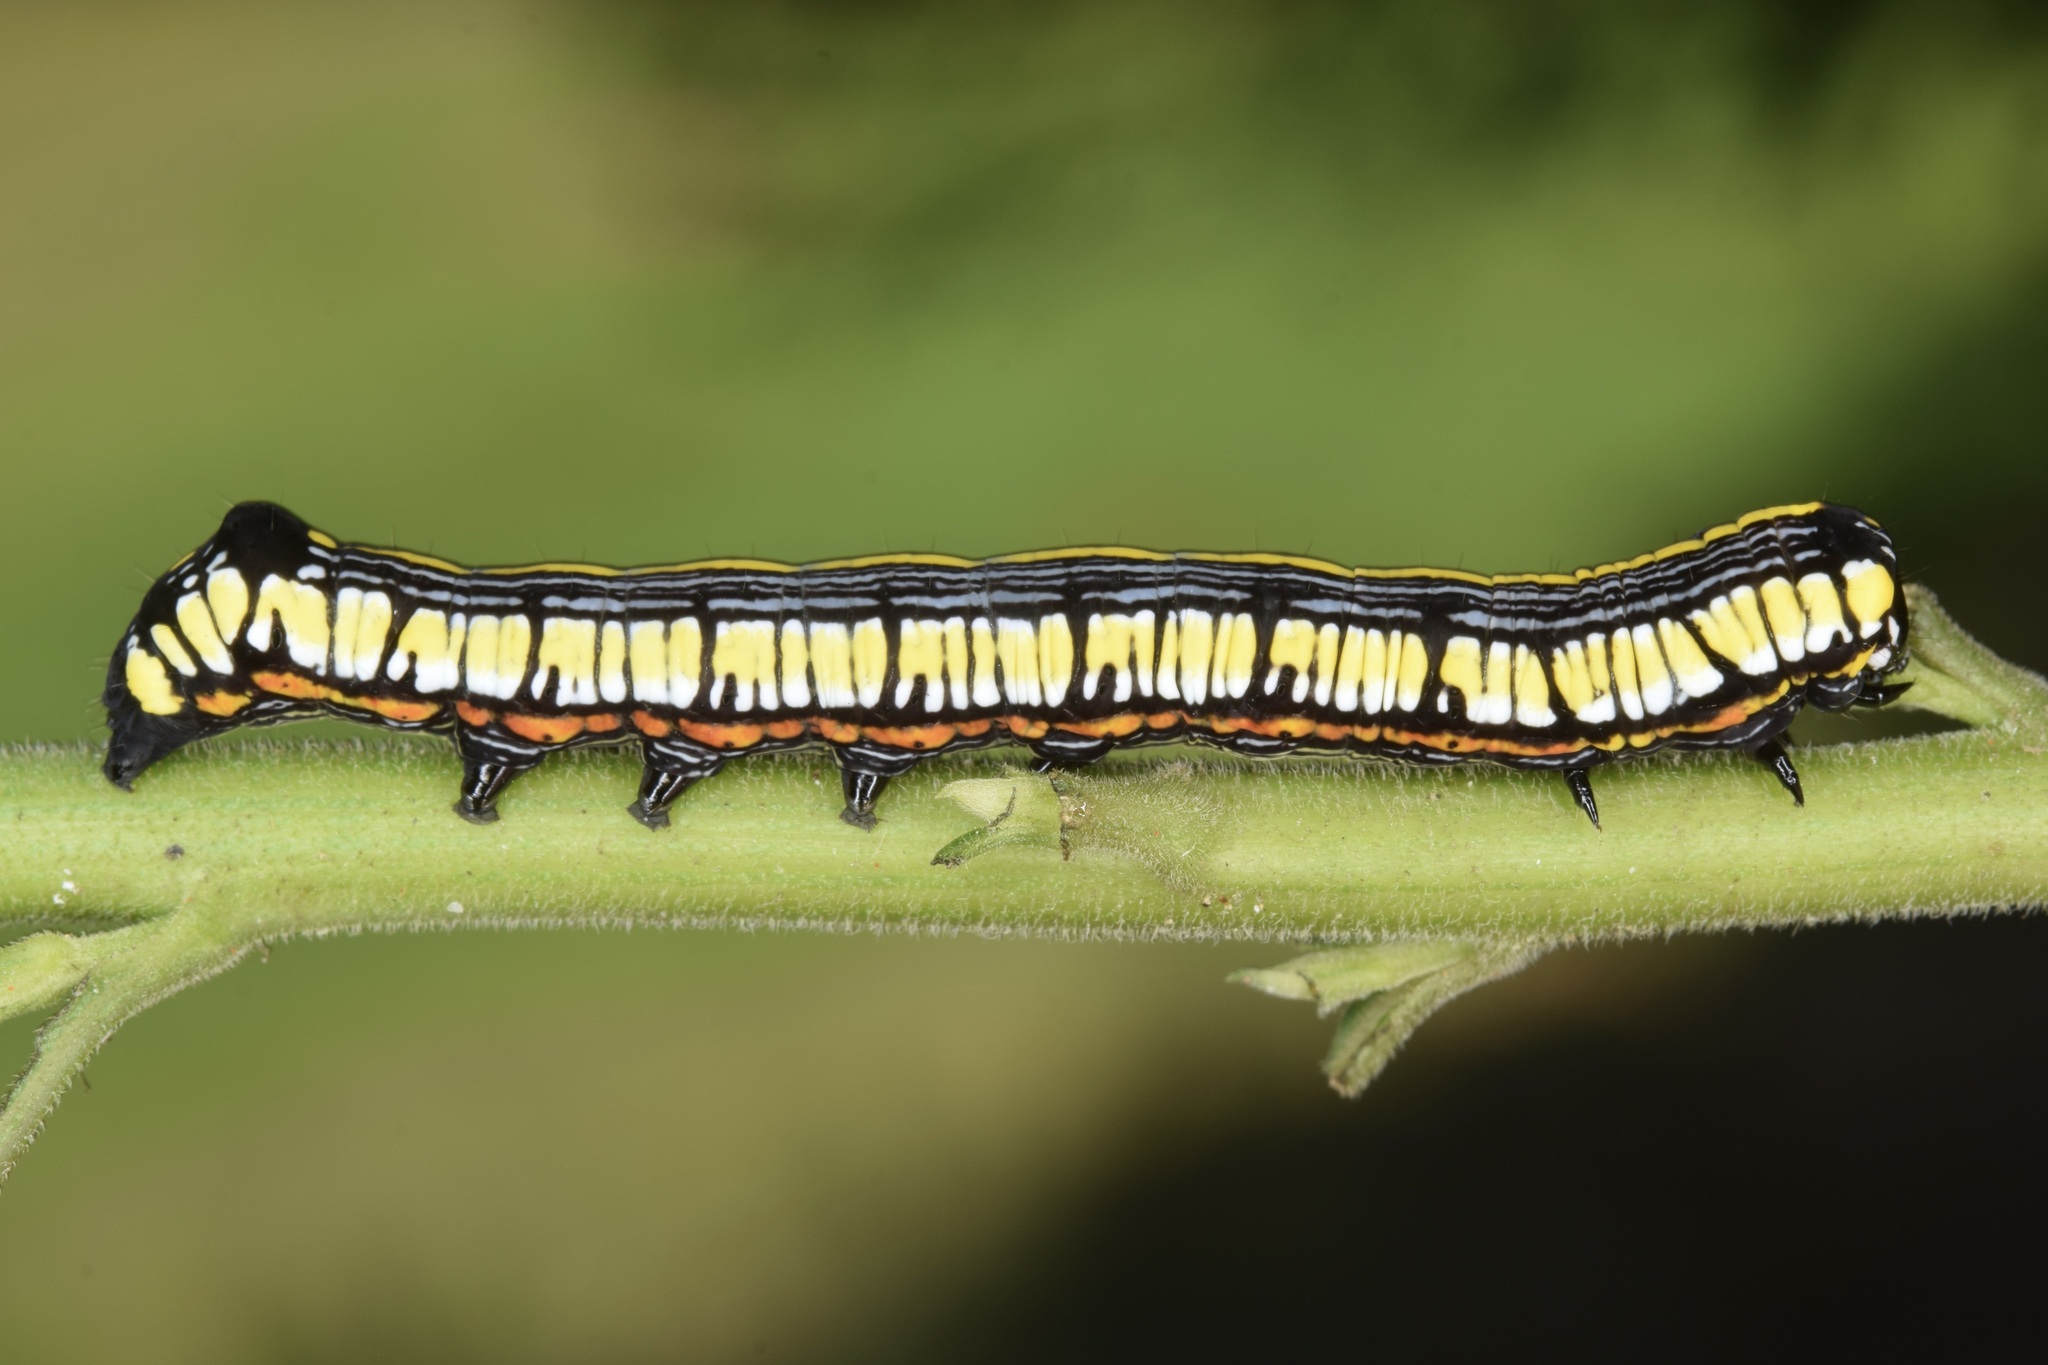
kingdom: Animalia
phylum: Arthropoda
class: Insecta
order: Lepidoptera
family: Noctuidae
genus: Cucullia
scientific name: Cucullia convexipennis
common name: Brown-hooded owlet
